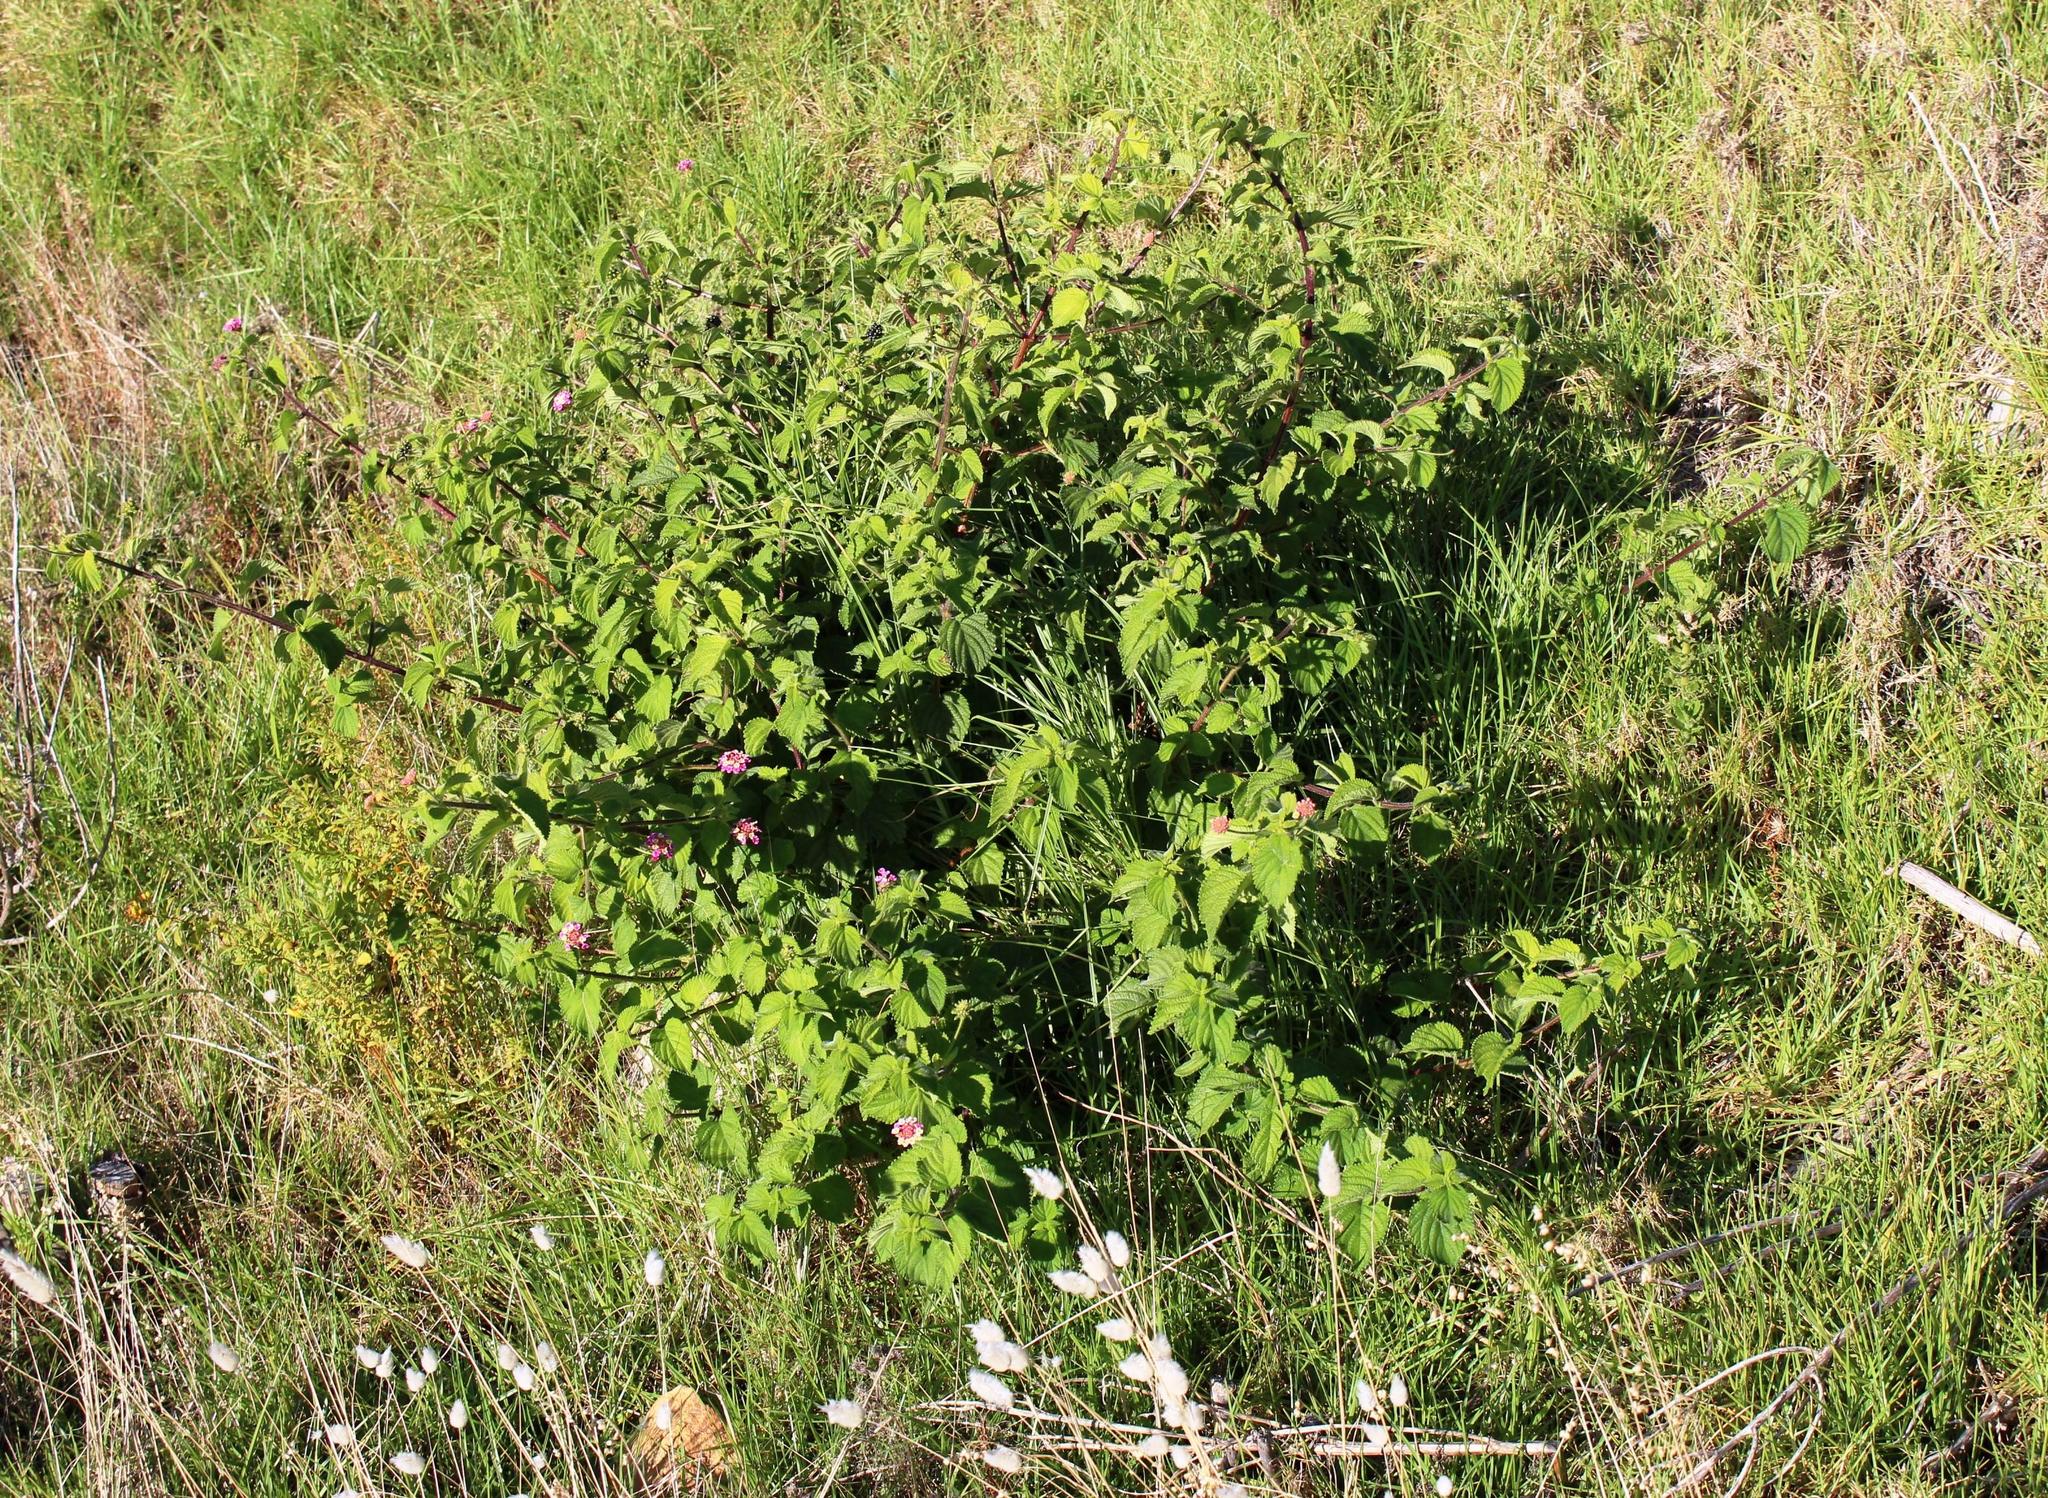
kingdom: Plantae
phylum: Tracheophyta
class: Magnoliopsida
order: Lamiales
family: Verbenaceae
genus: Lantana
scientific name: Lantana camara
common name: Lantana
